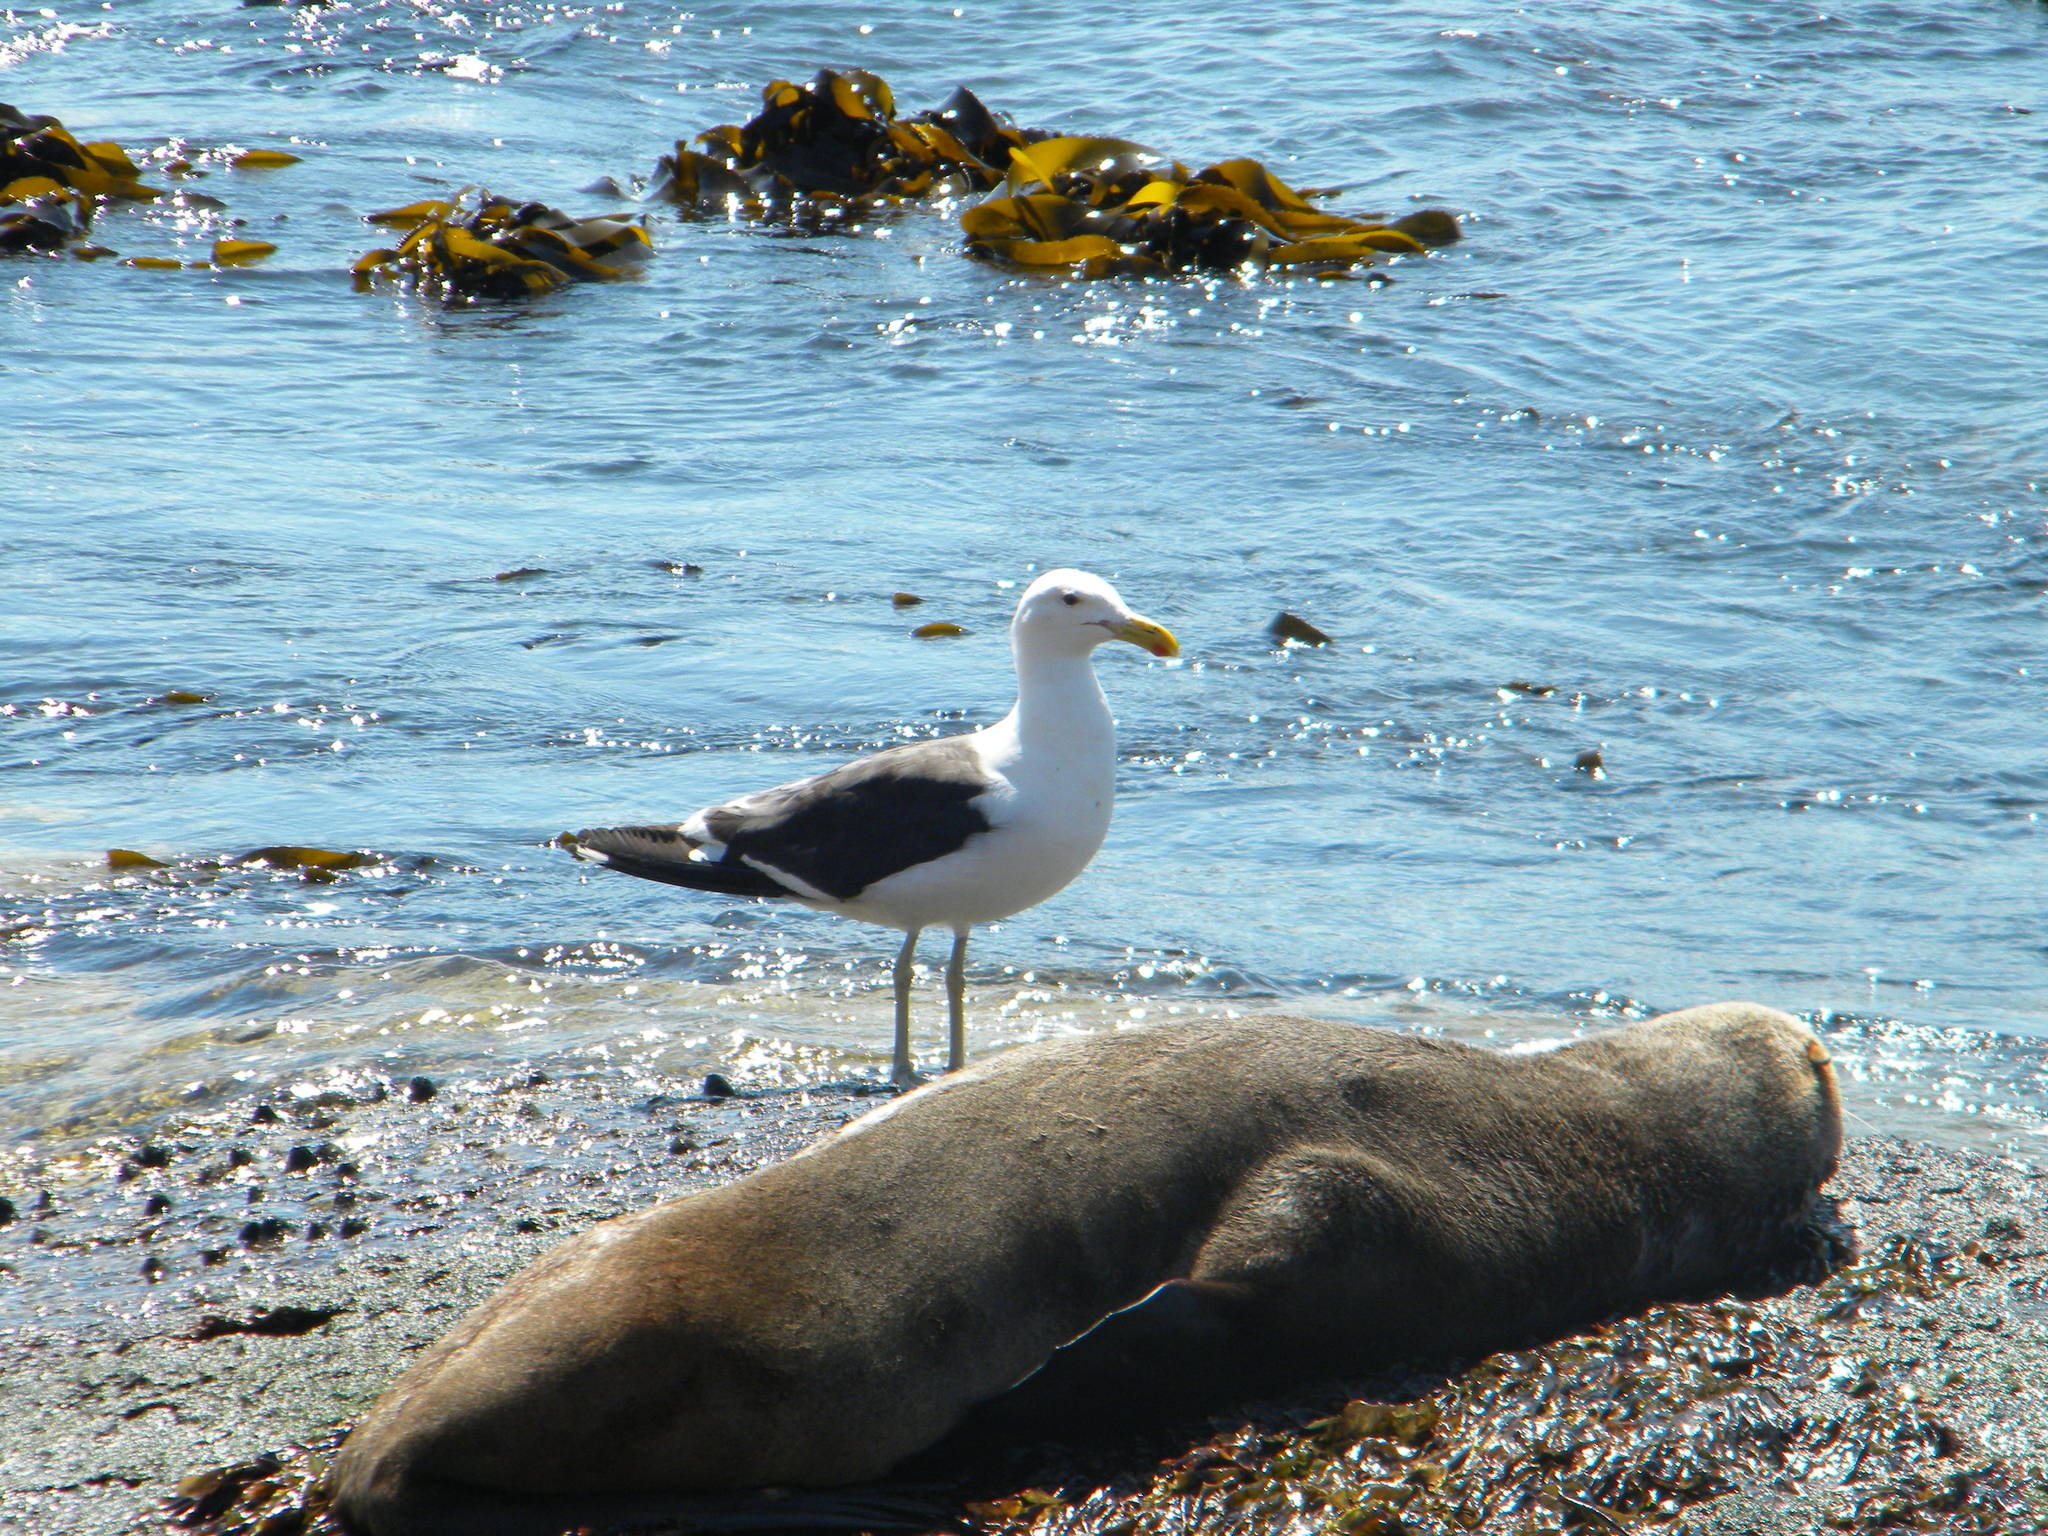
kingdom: Animalia
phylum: Chordata
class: Aves
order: Charadriiformes
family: Laridae
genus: Larus
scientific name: Larus dominicanus
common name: Kelp gull
